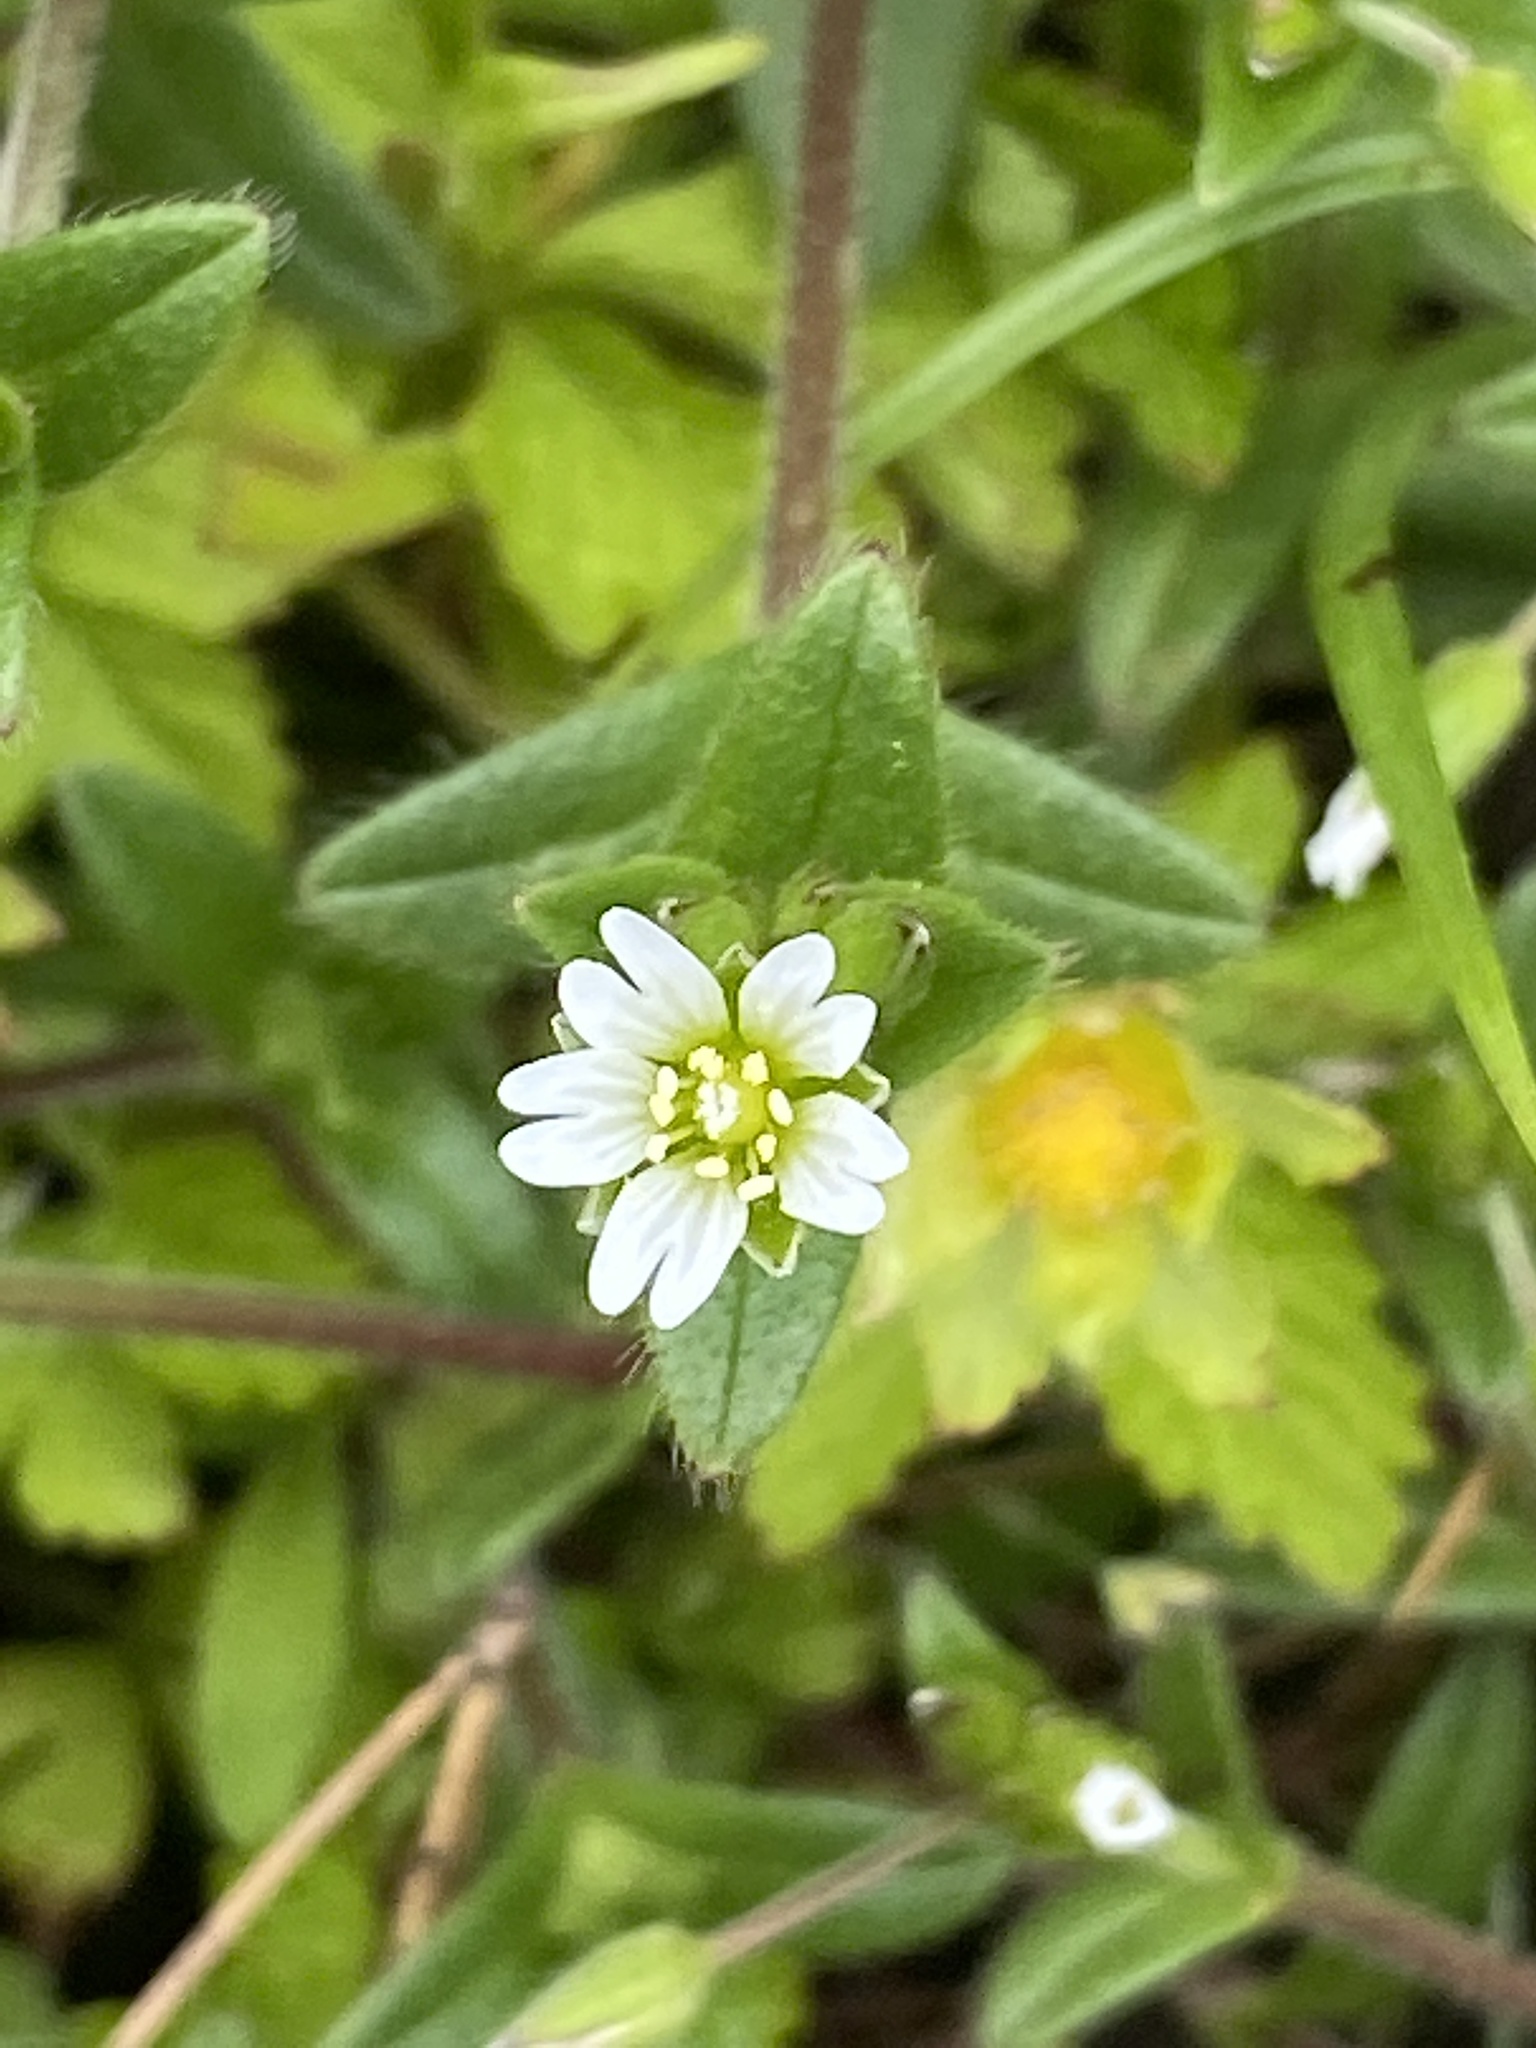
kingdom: Plantae
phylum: Tracheophyta
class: Magnoliopsida
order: Caryophyllales
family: Caryophyllaceae
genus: Cerastium
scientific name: Cerastium fontanum
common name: Common mouse-ear
